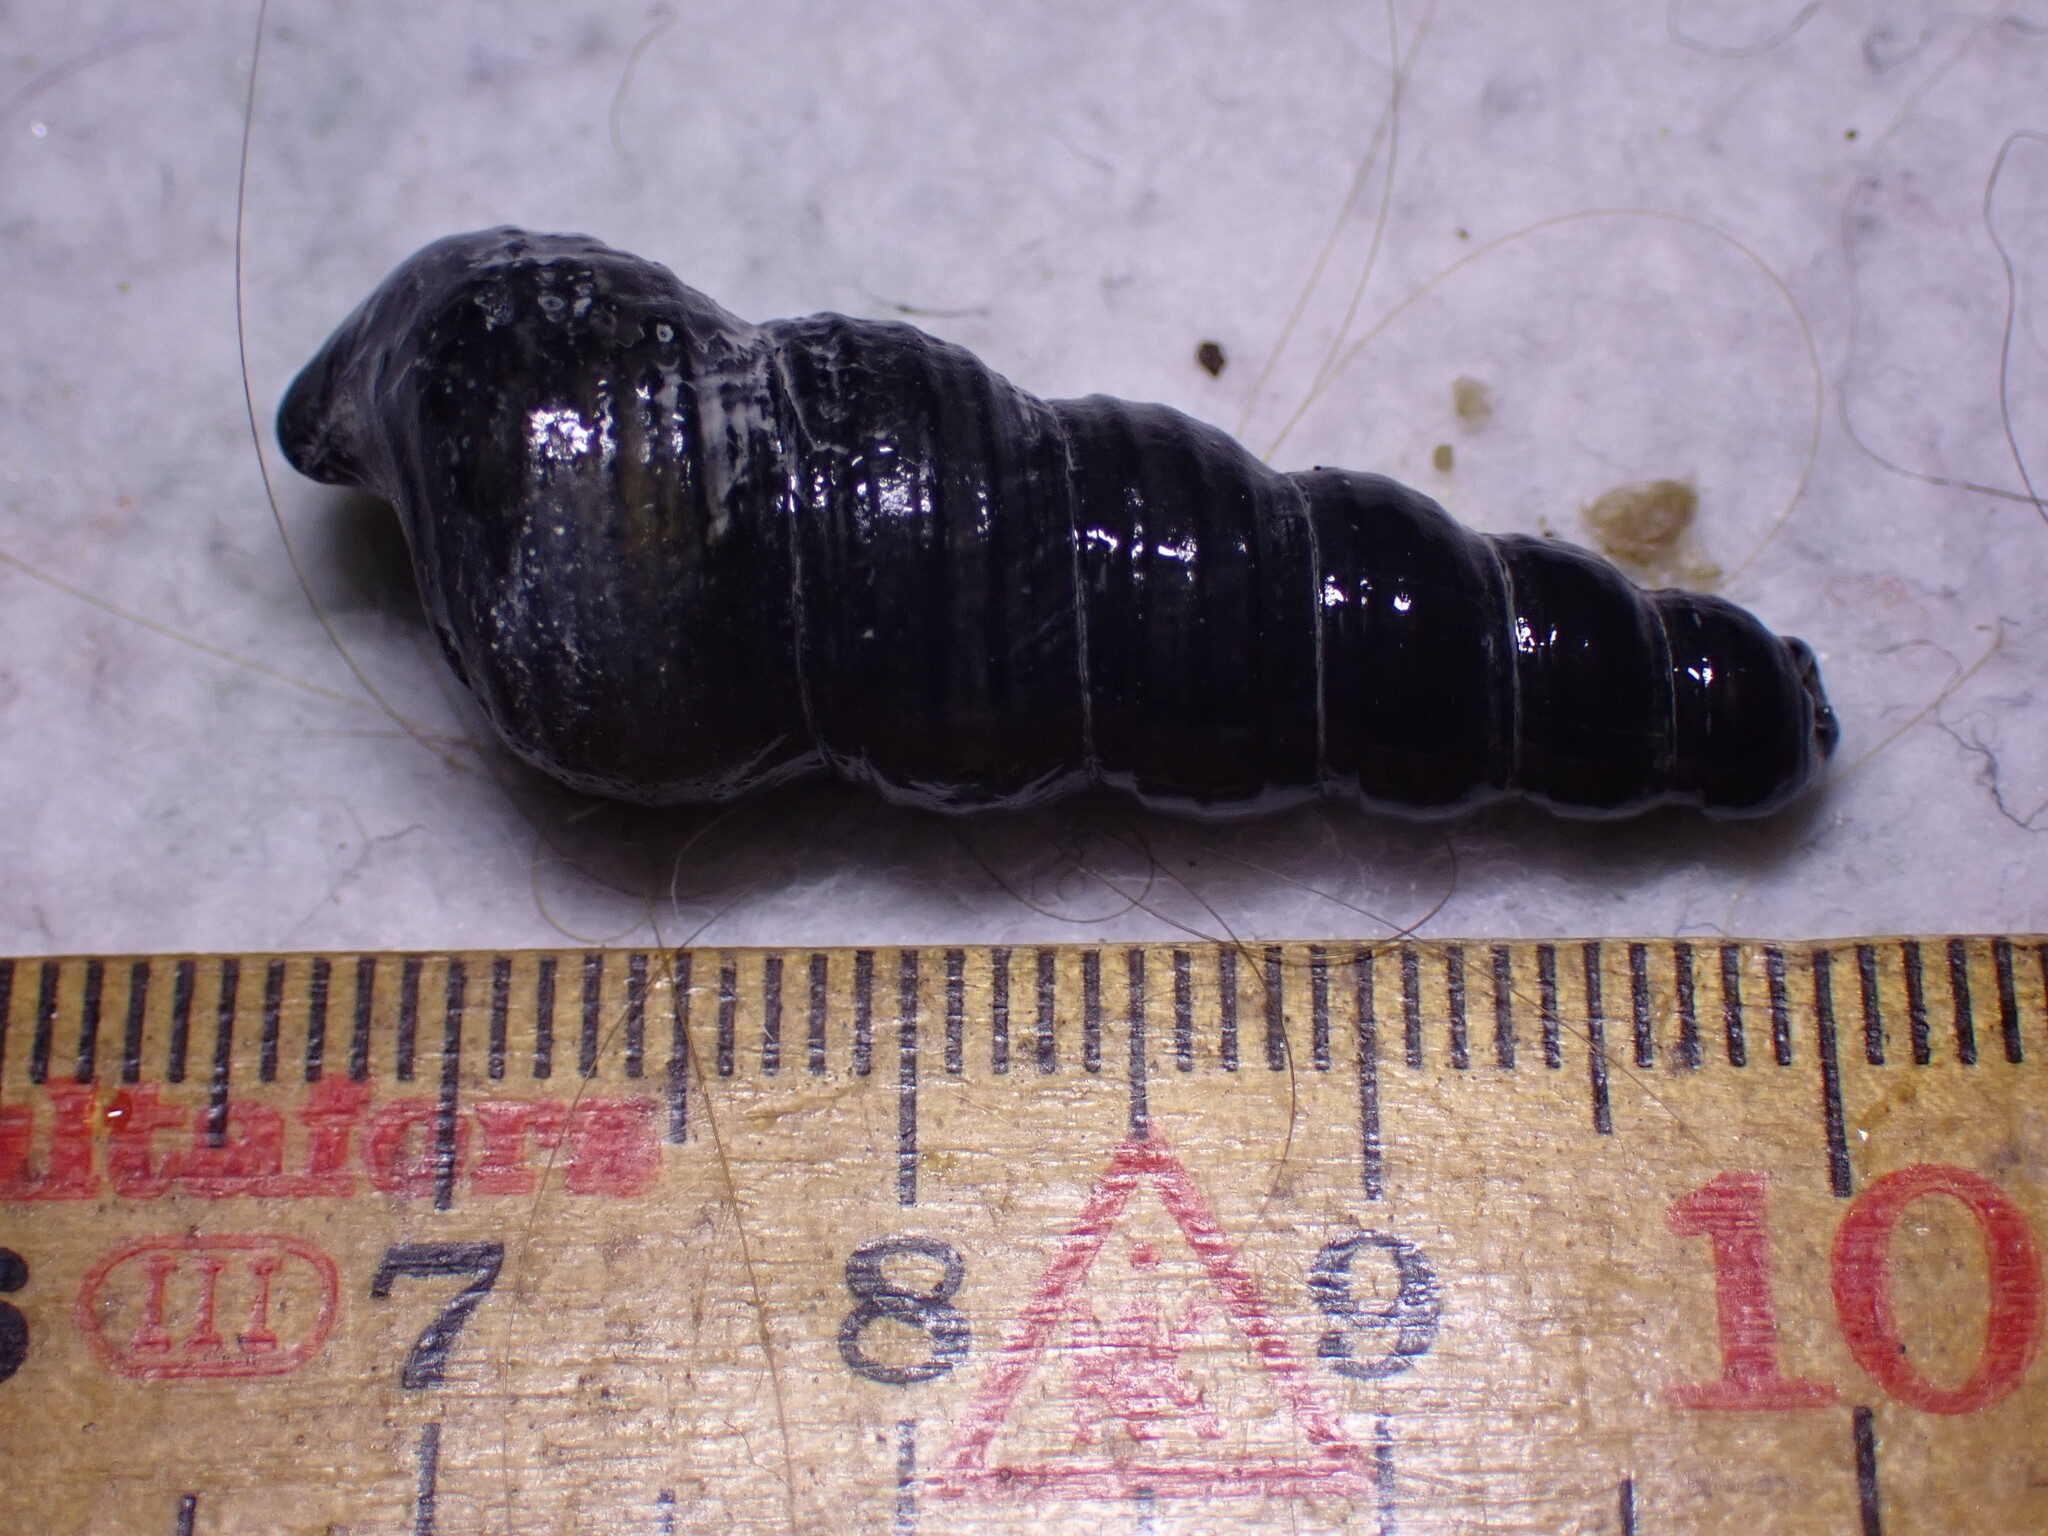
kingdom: Animalia
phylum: Mollusca
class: Gastropoda
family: Turritellidae
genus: Turritellinella
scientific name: Turritellinella tricarinata
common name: Auger shell
